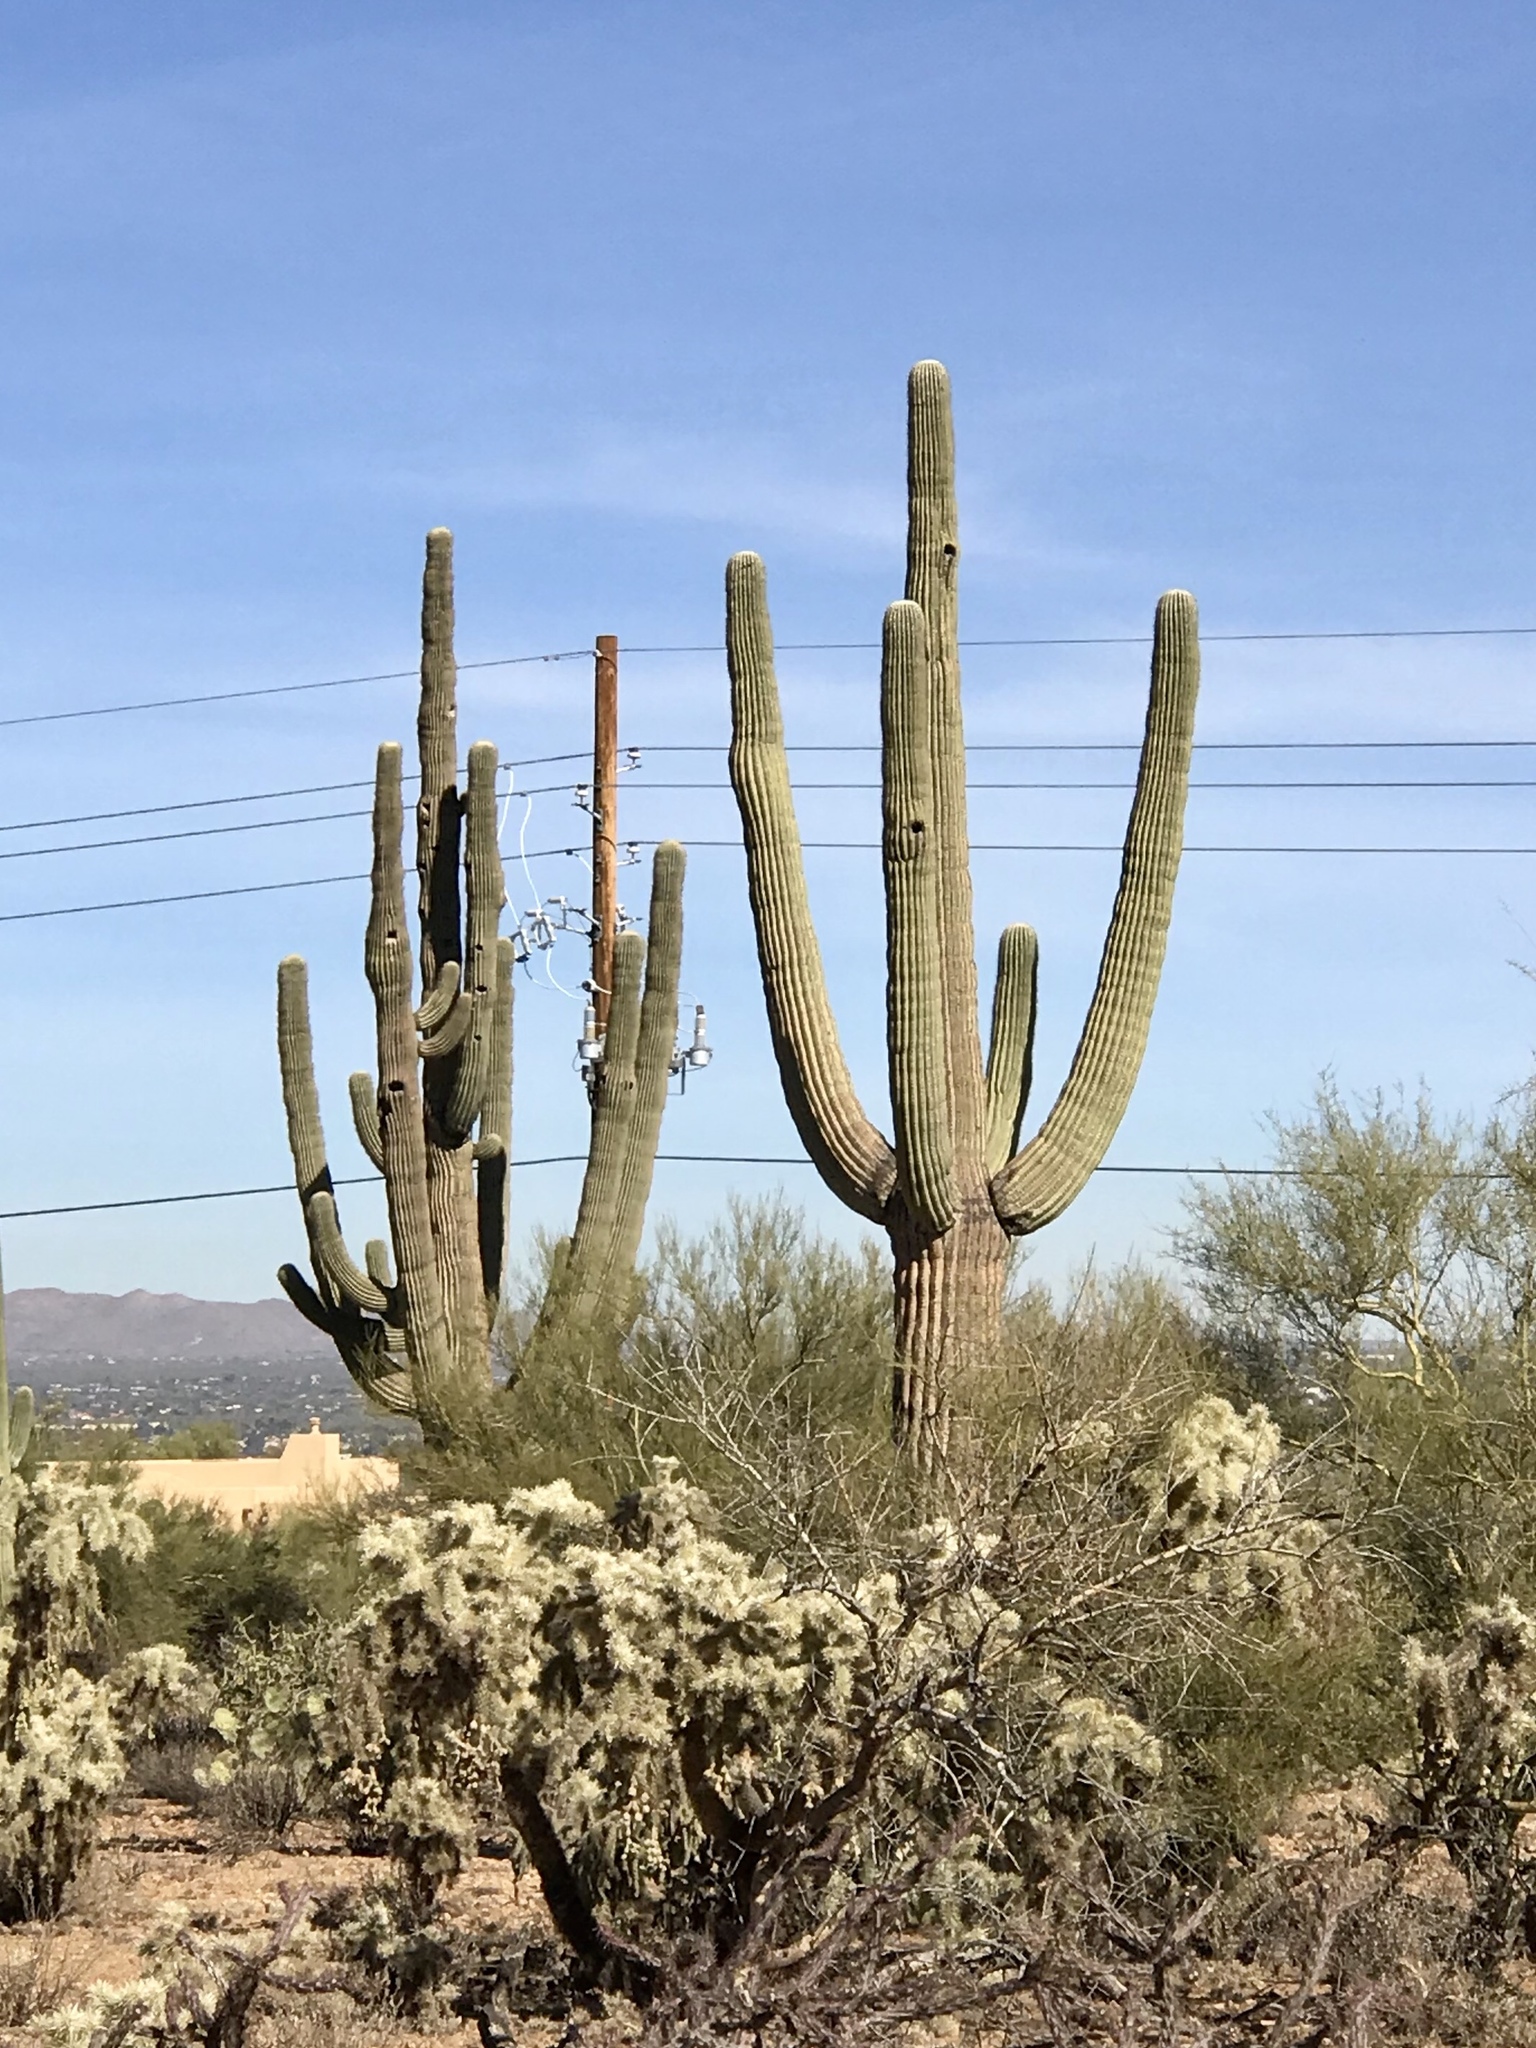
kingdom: Plantae
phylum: Tracheophyta
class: Magnoliopsida
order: Caryophyllales
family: Cactaceae
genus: Carnegiea
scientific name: Carnegiea gigantea
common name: Saguaro
